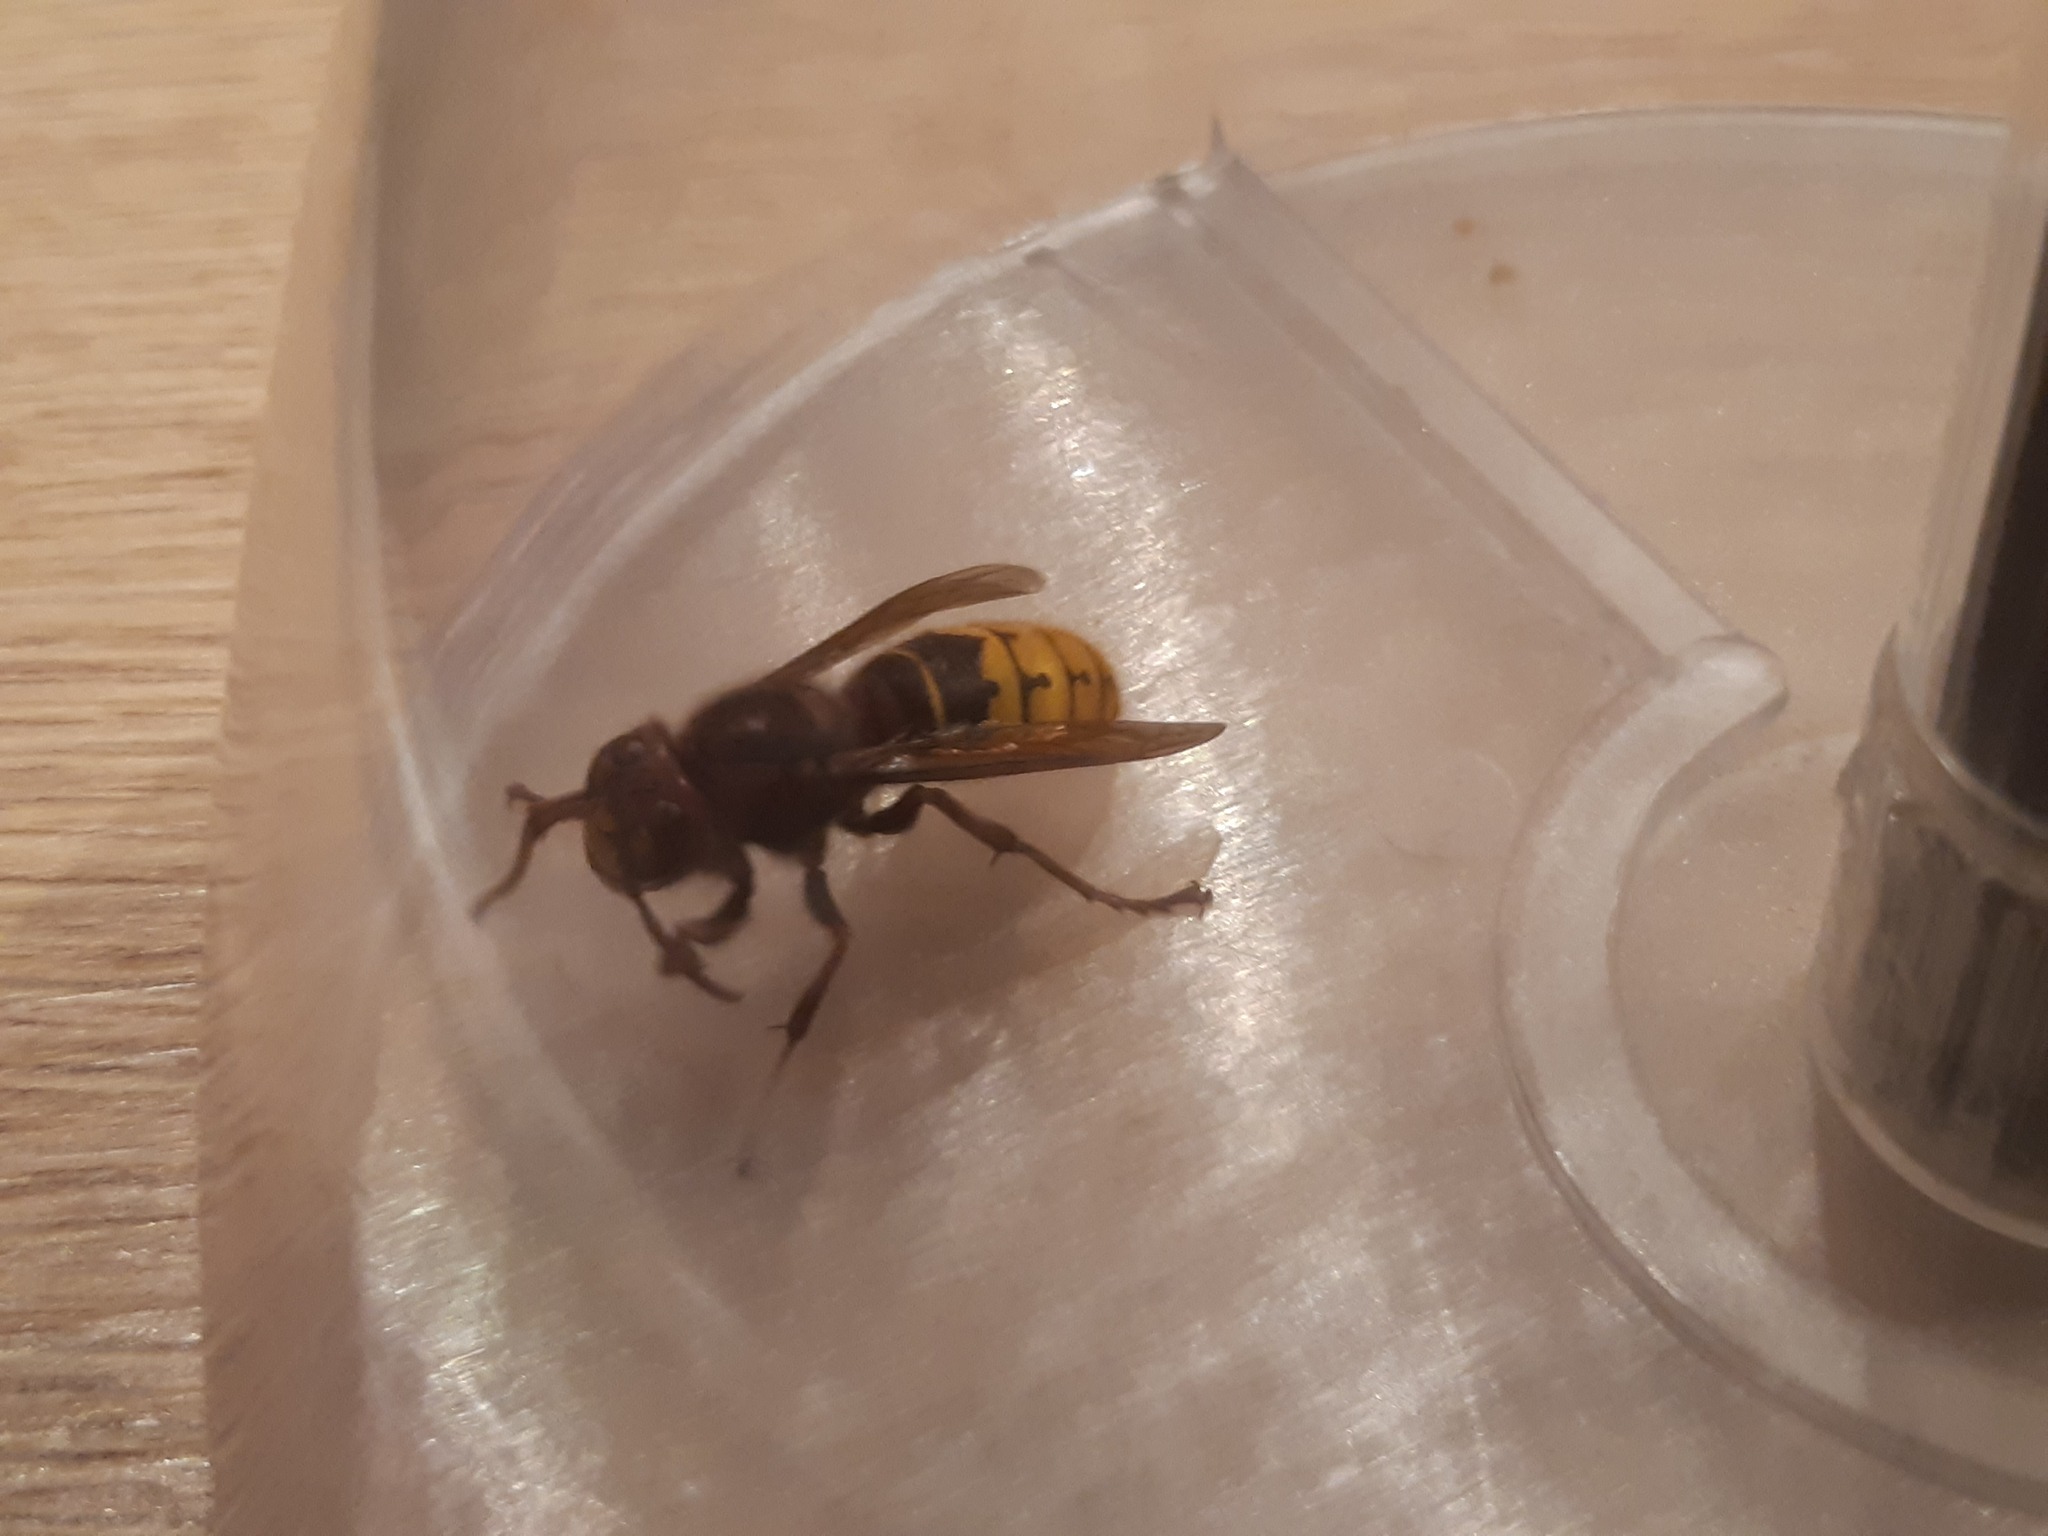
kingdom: Animalia
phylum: Arthropoda
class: Insecta
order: Hymenoptera
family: Vespidae
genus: Vespa
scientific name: Vespa crabro
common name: Hornet
